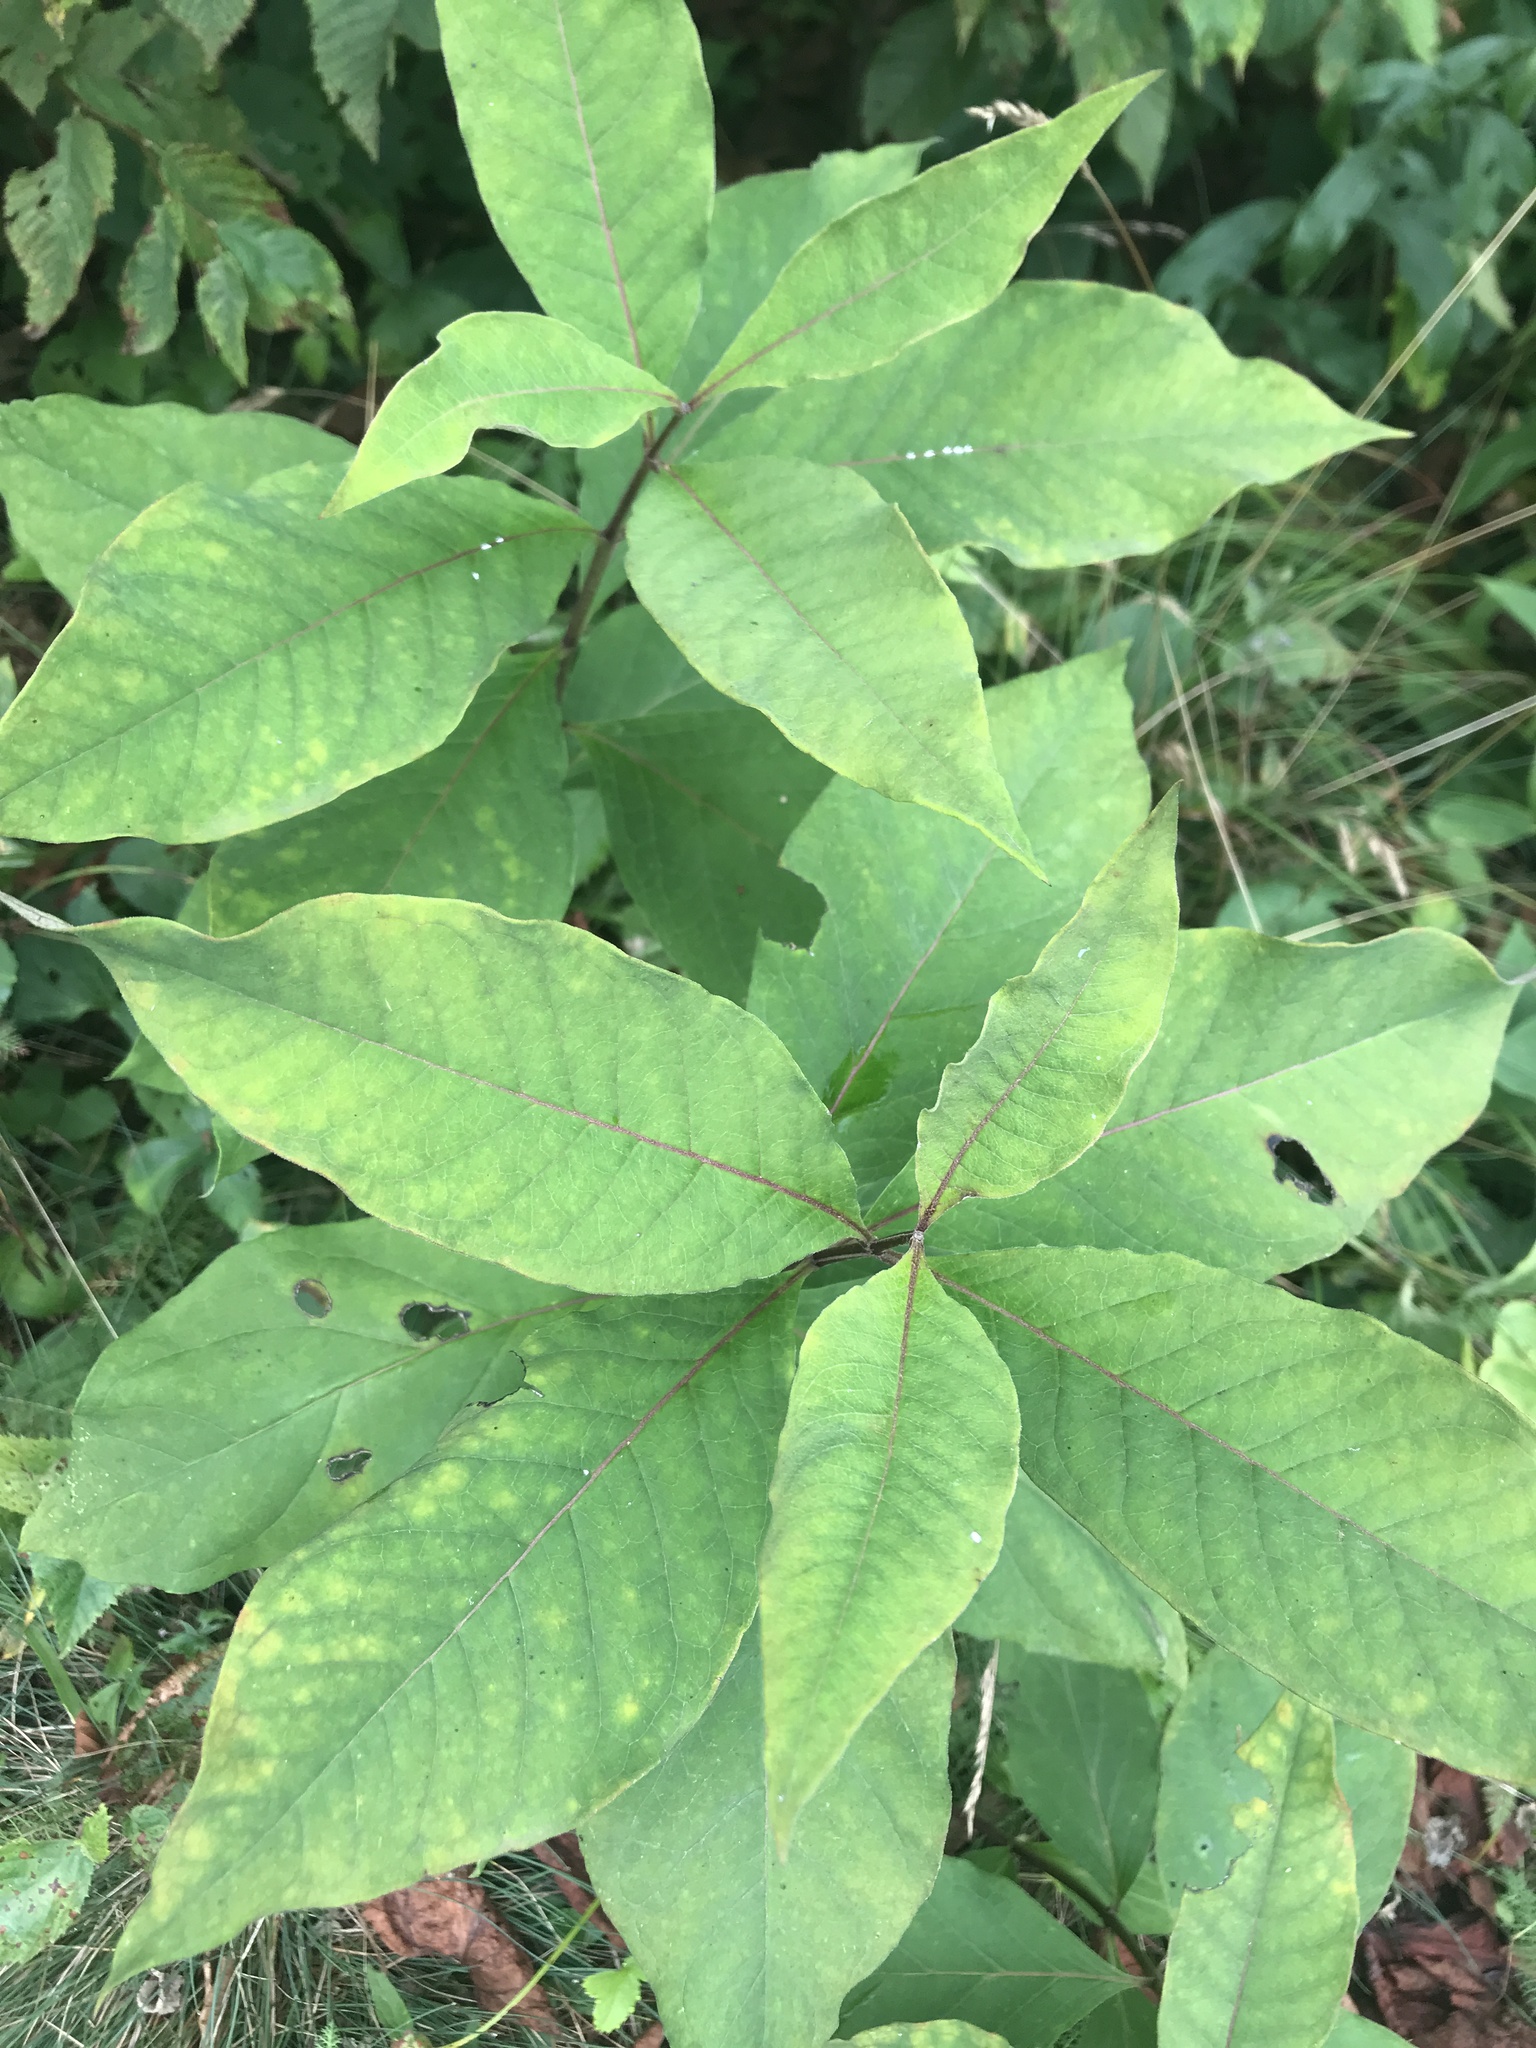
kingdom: Plantae
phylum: Tracheophyta
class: Magnoliopsida
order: Gentianales
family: Apocynaceae
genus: Asclepias
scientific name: Asclepias exaltata
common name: Poke milkweed
